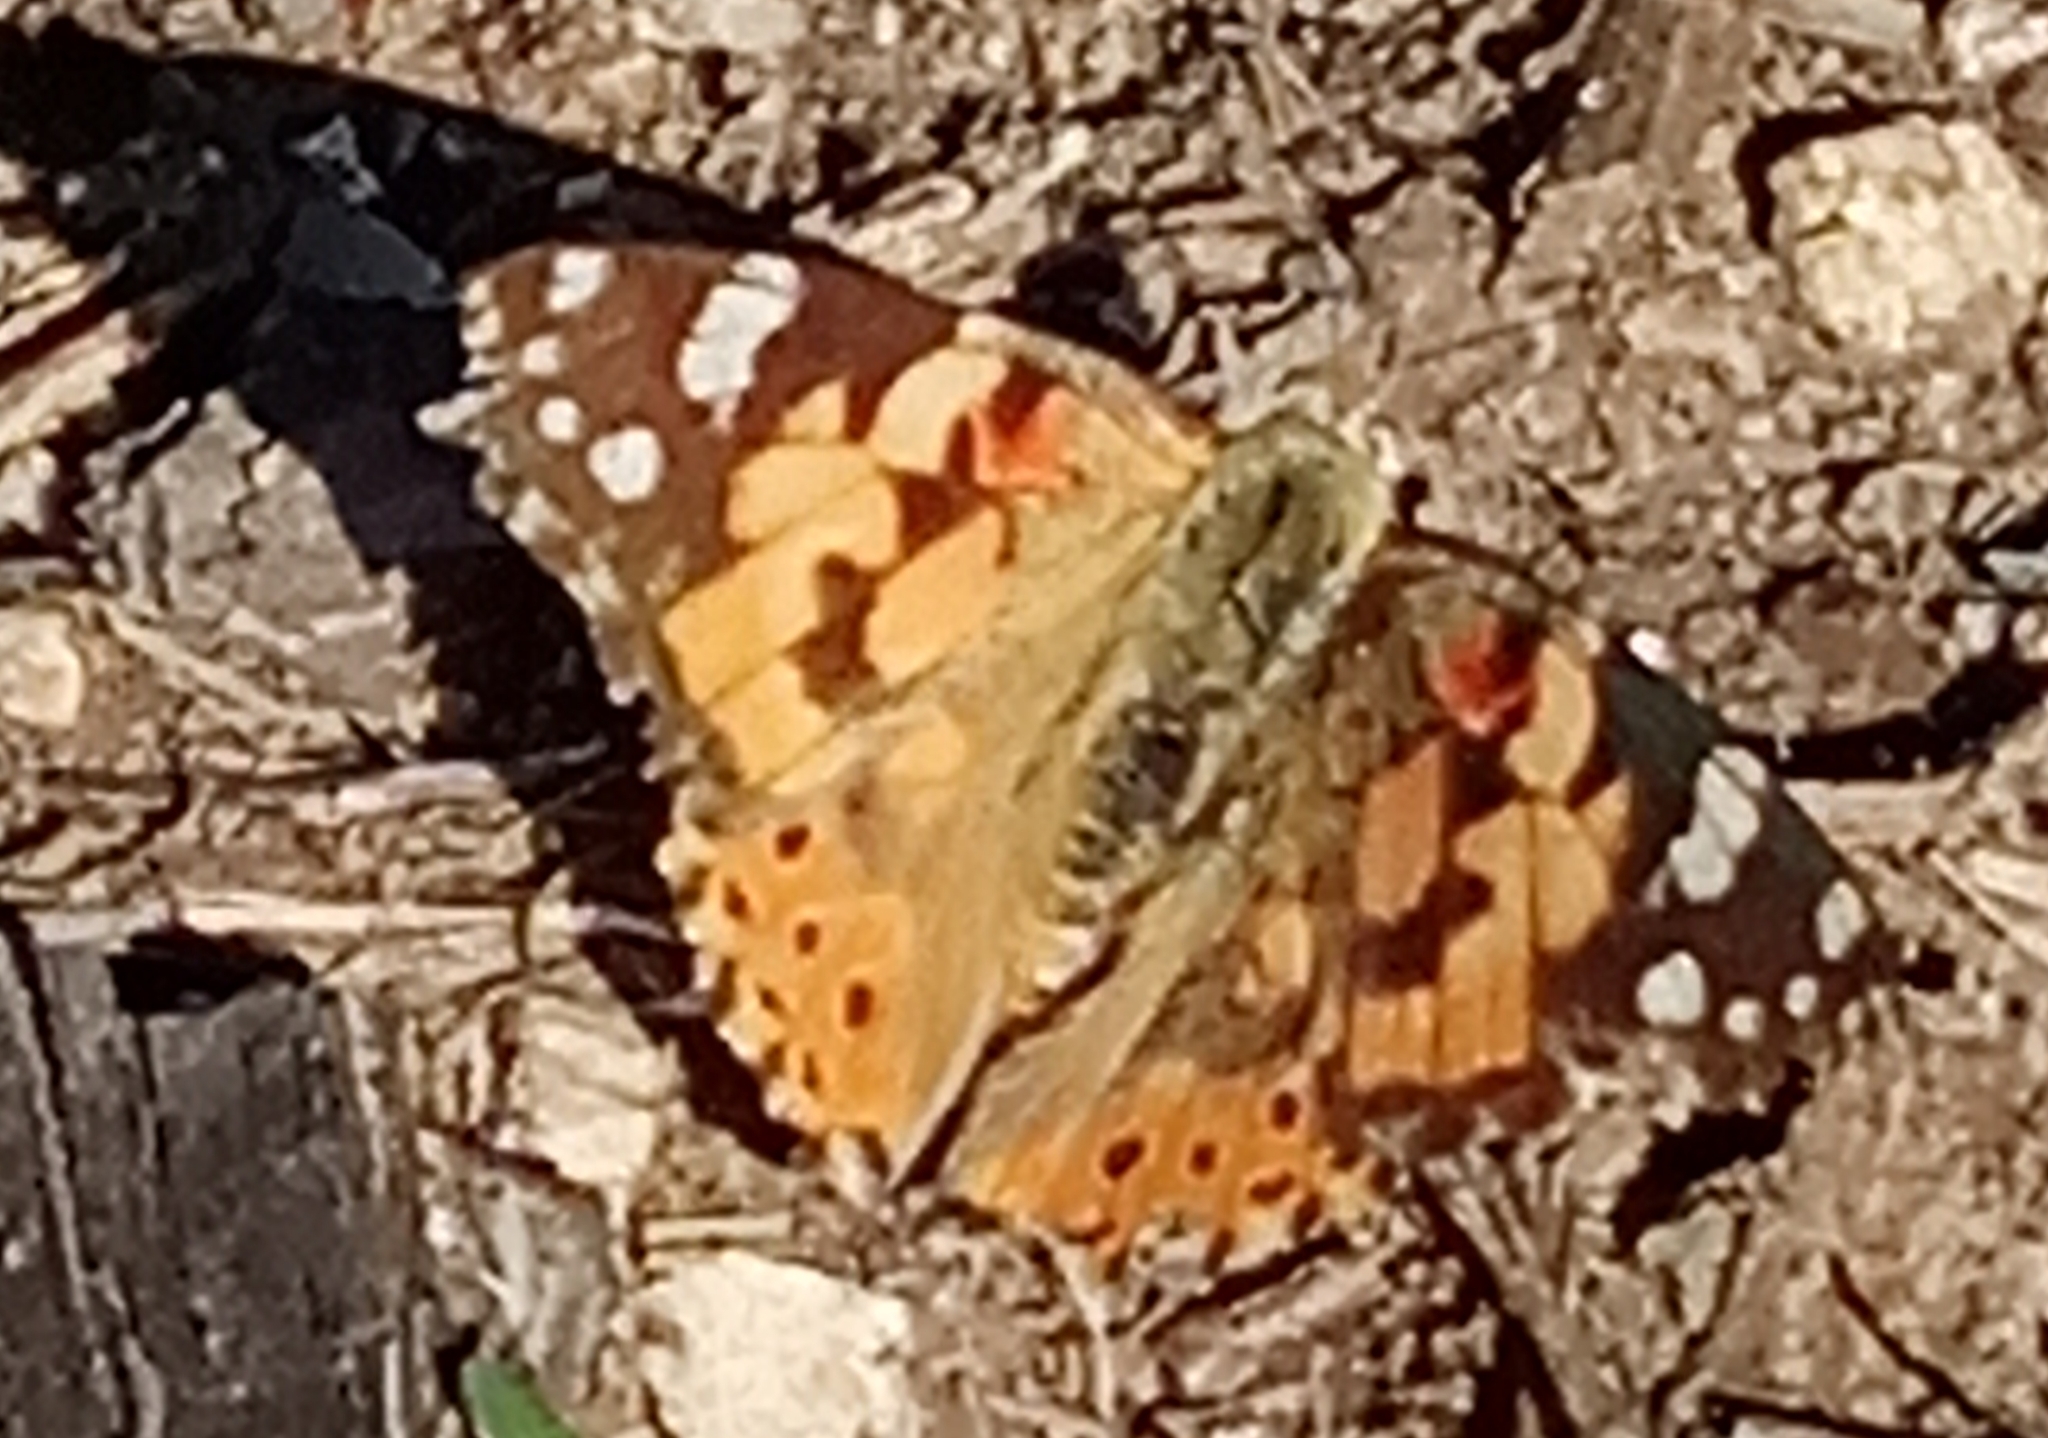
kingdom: Animalia
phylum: Arthropoda
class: Insecta
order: Lepidoptera
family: Nymphalidae
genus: Vanessa
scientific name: Vanessa cardui
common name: Painted lady
